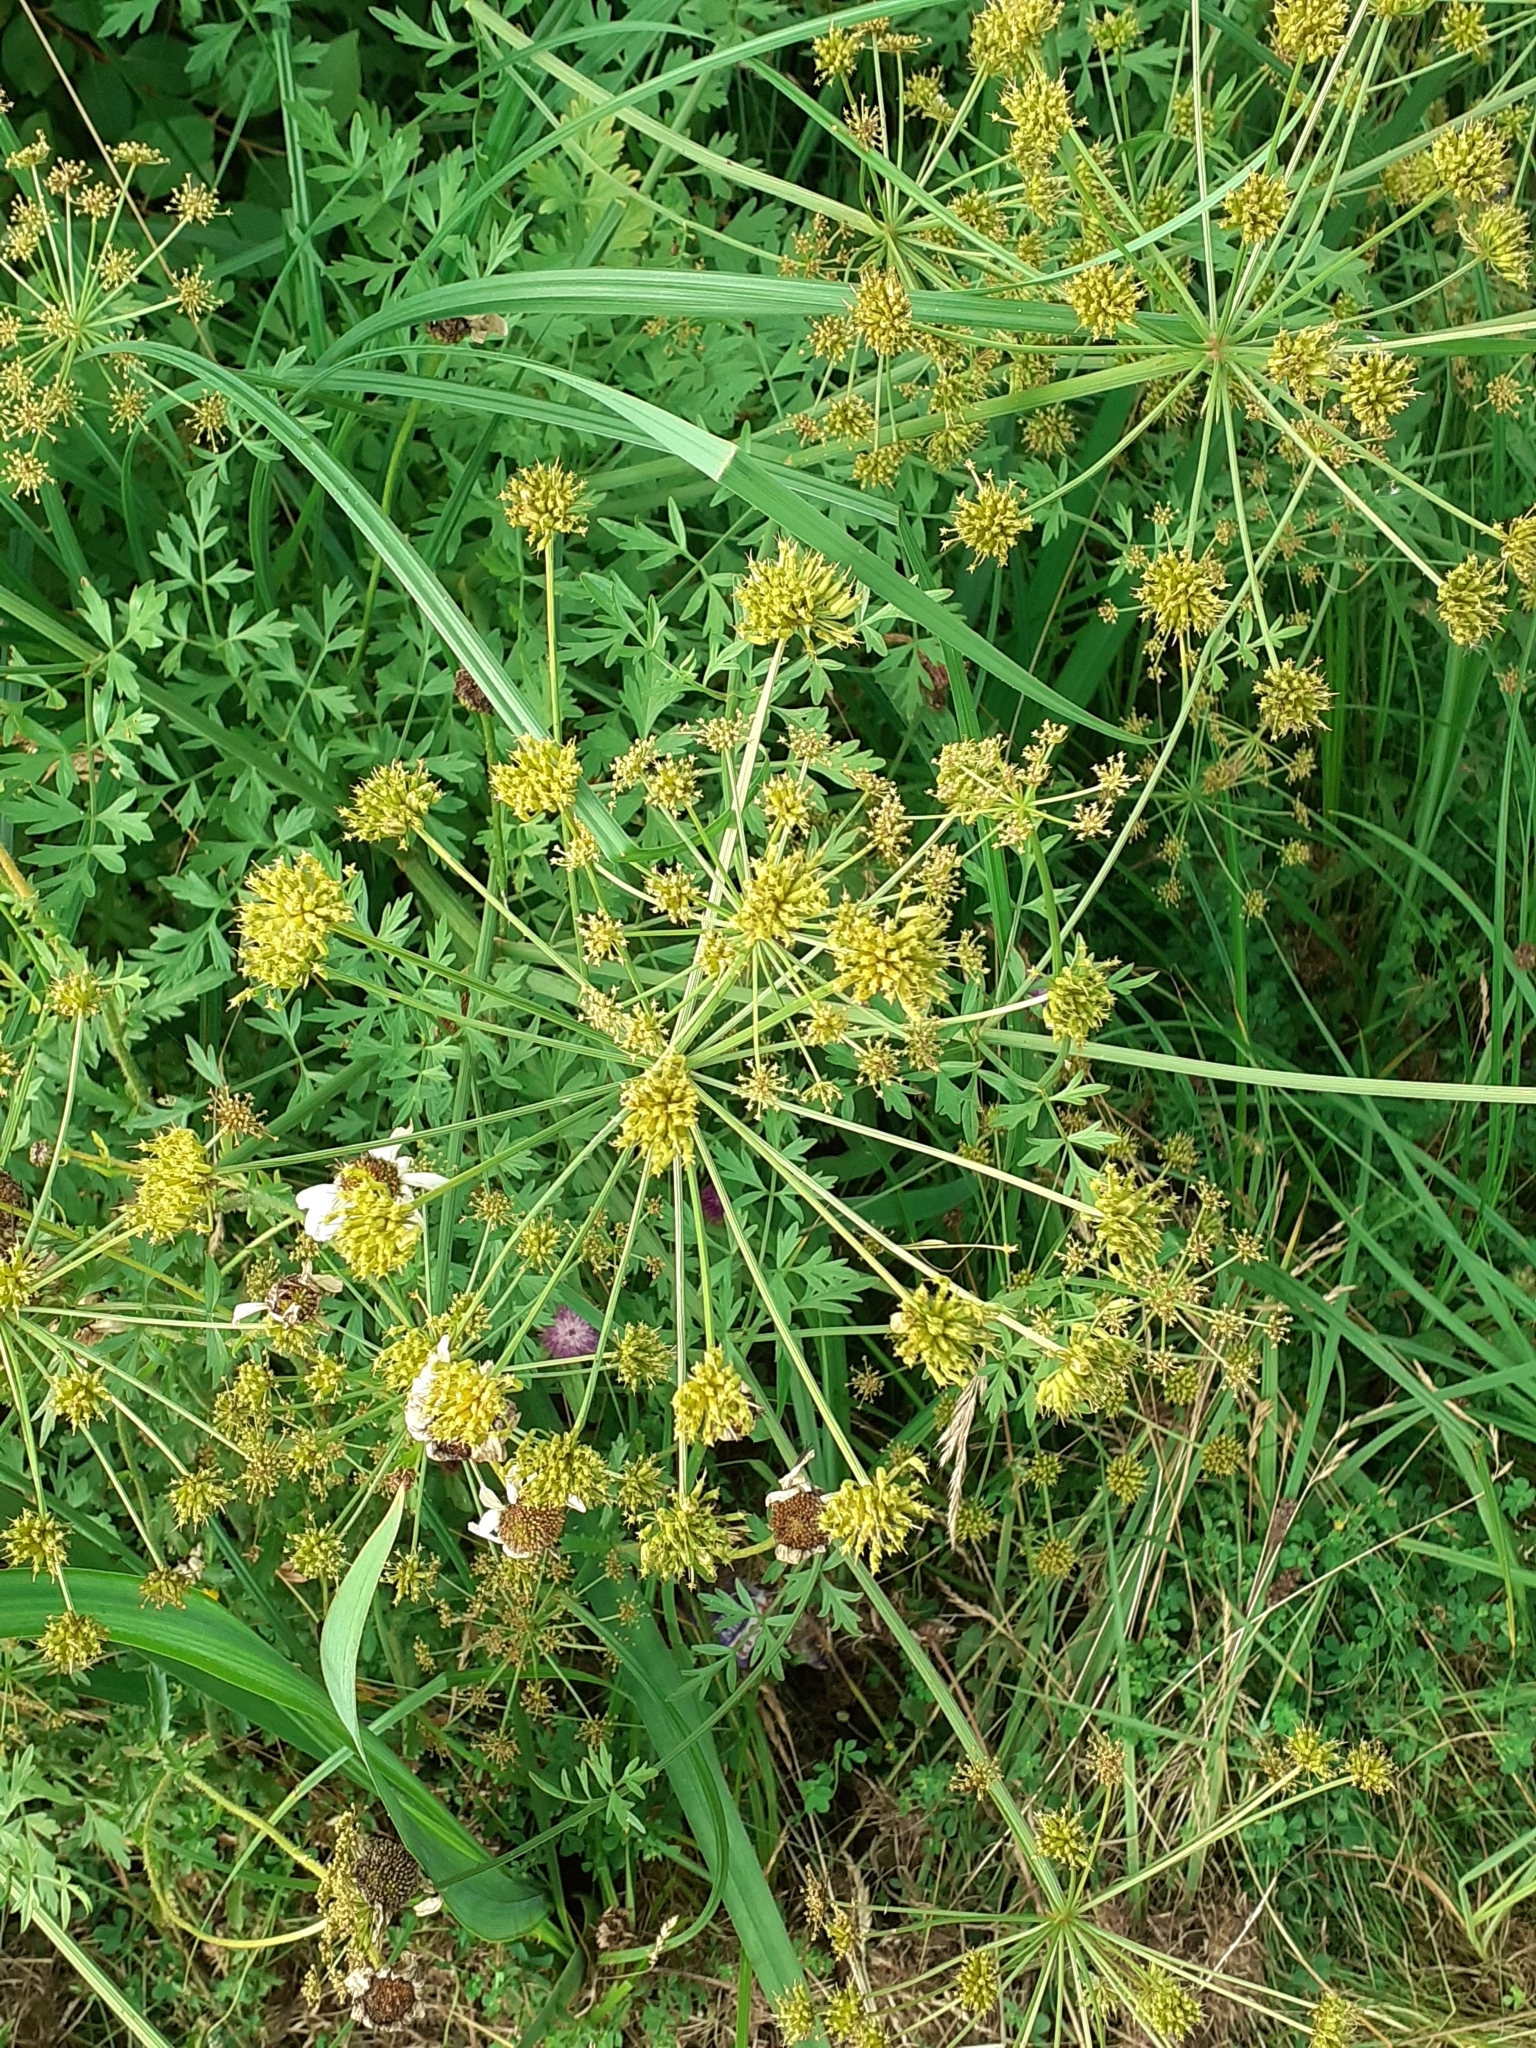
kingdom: Plantae
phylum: Tracheophyta
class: Magnoliopsida
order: Apiales
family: Apiaceae
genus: Oenanthe
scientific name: Oenanthe crocata
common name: Hemlock water-dropwort
